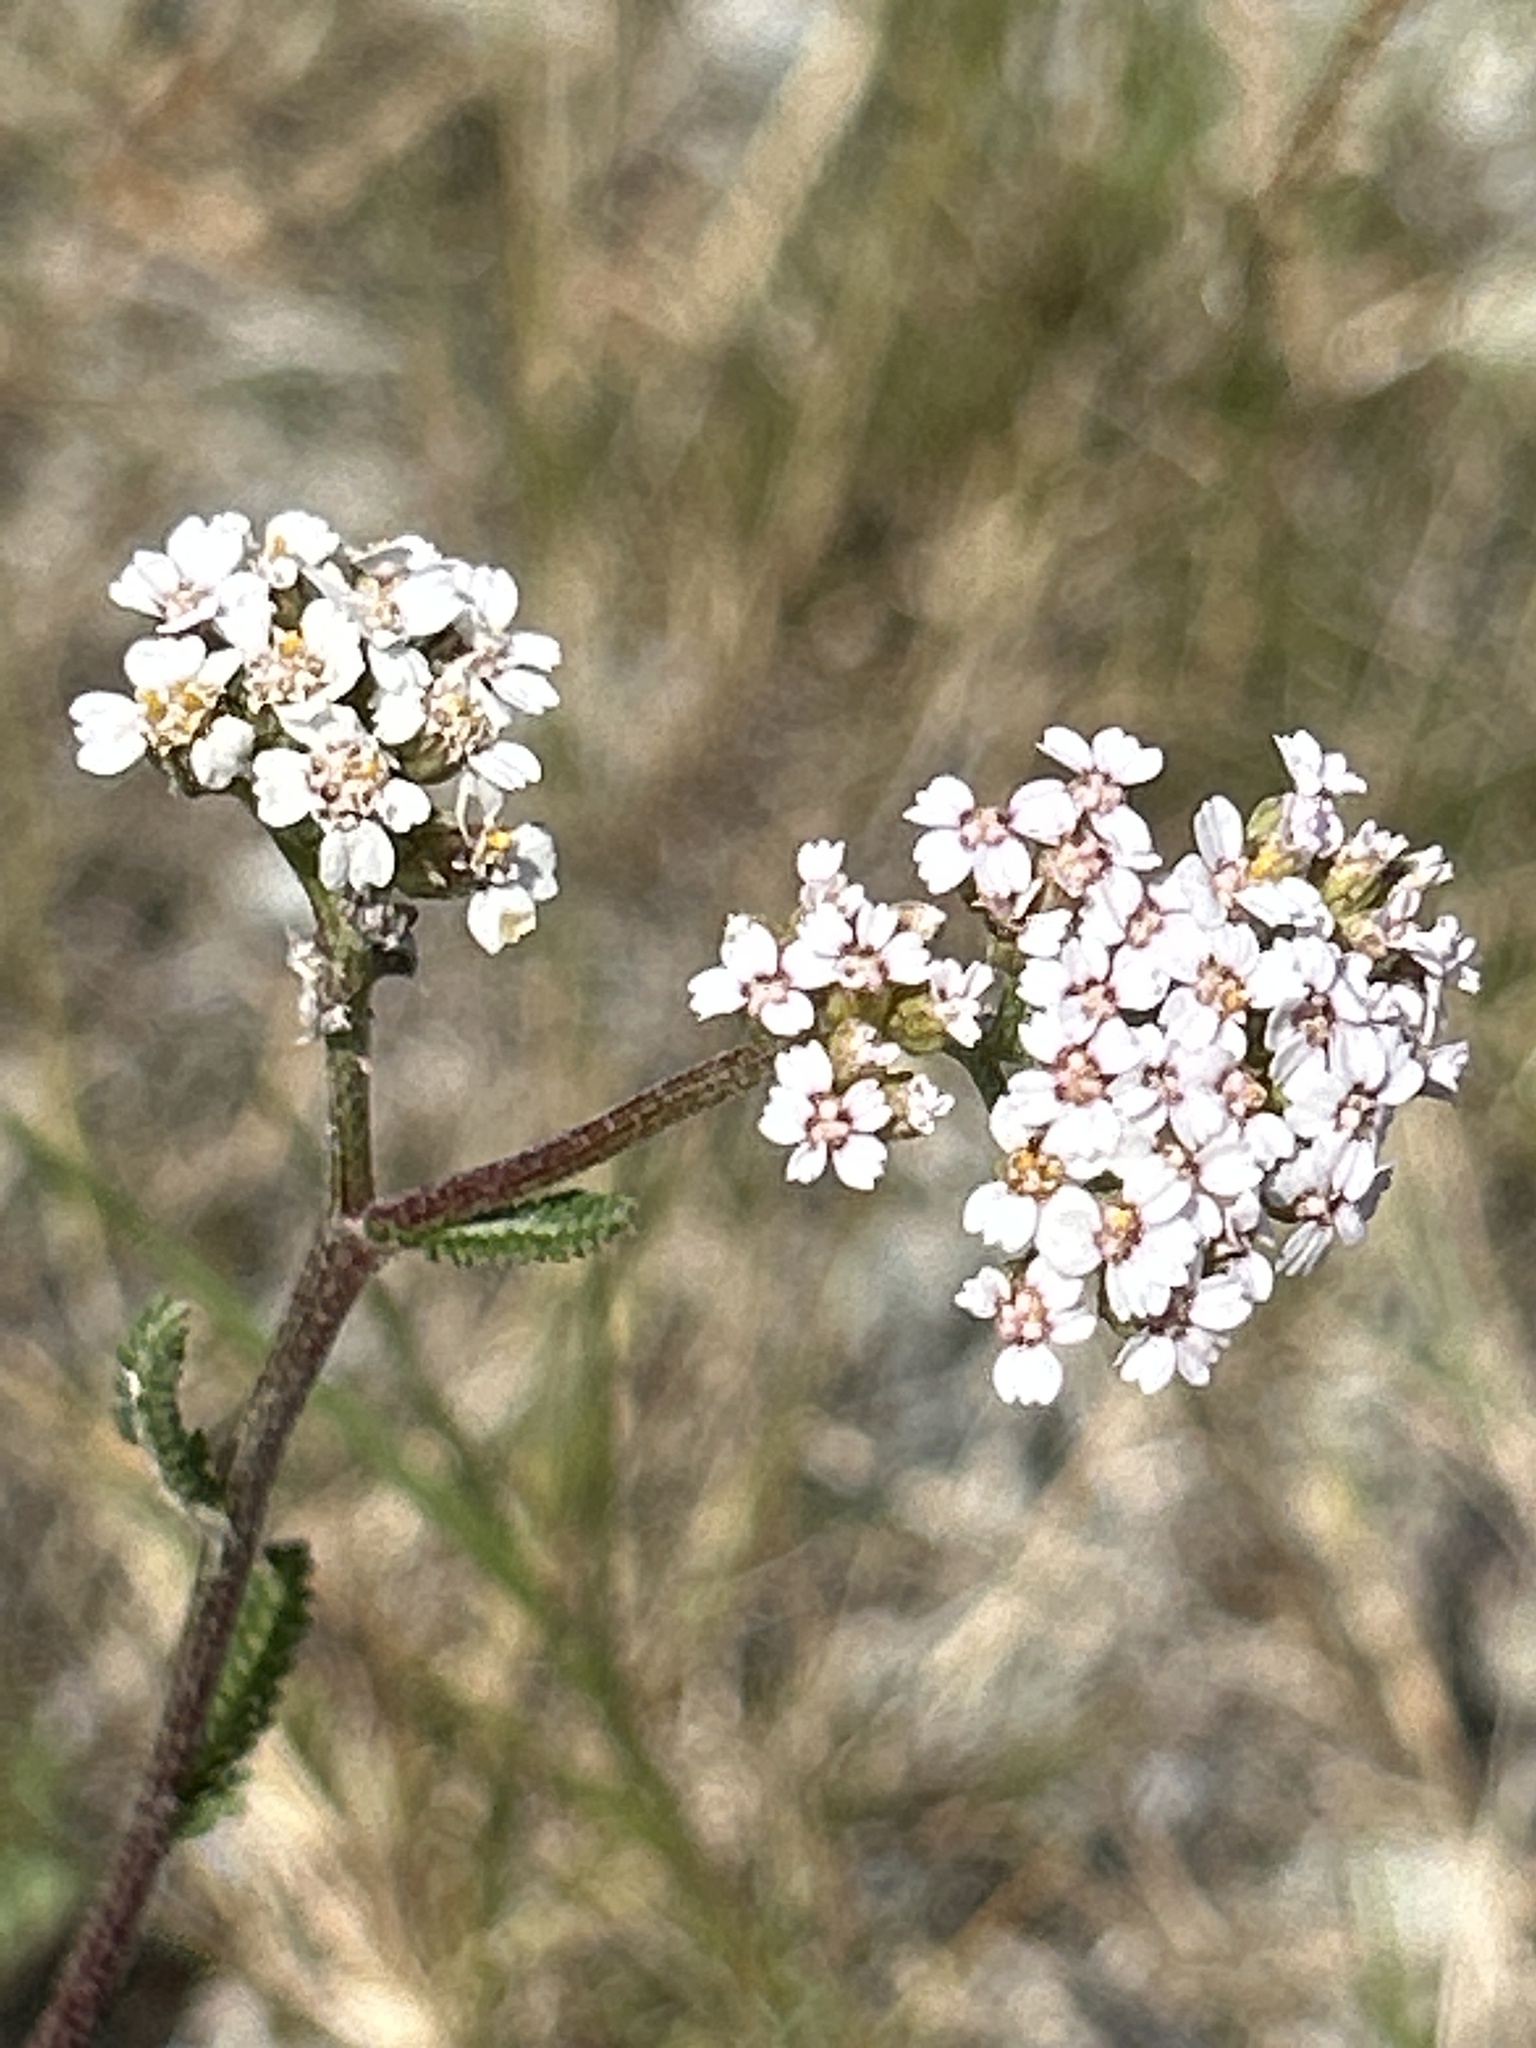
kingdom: Plantae
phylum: Tracheophyta
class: Magnoliopsida
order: Asterales
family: Asteraceae
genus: Achillea
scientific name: Achillea millefolium
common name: Yarrow
